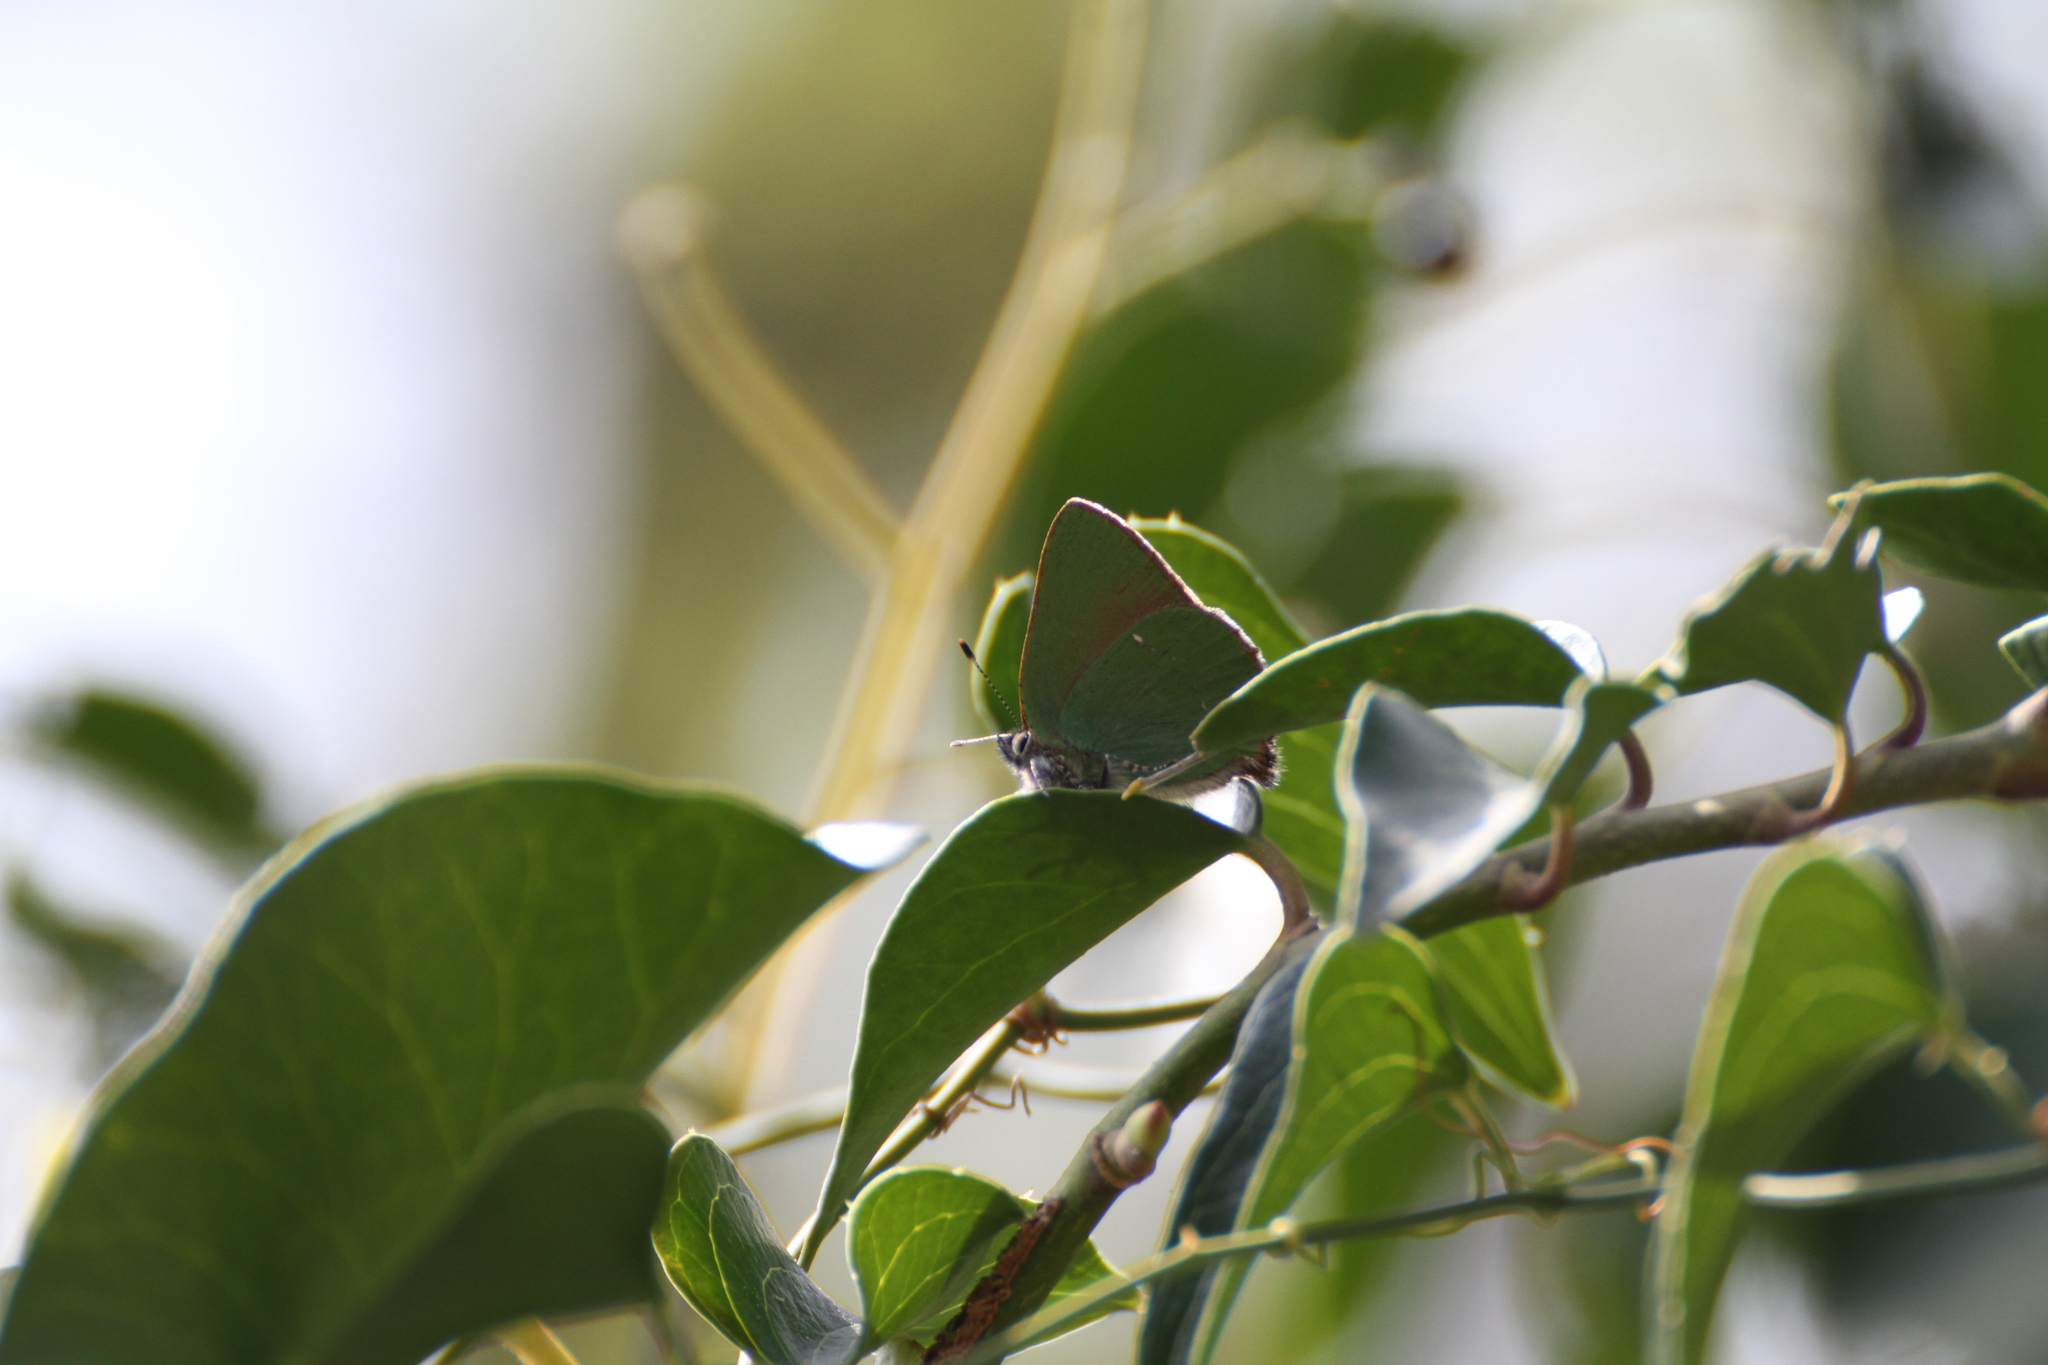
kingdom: Animalia
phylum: Arthropoda
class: Insecta
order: Lepidoptera
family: Lycaenidae
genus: Callophrys
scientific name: Callophrys rubi
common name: Green hairstreak
